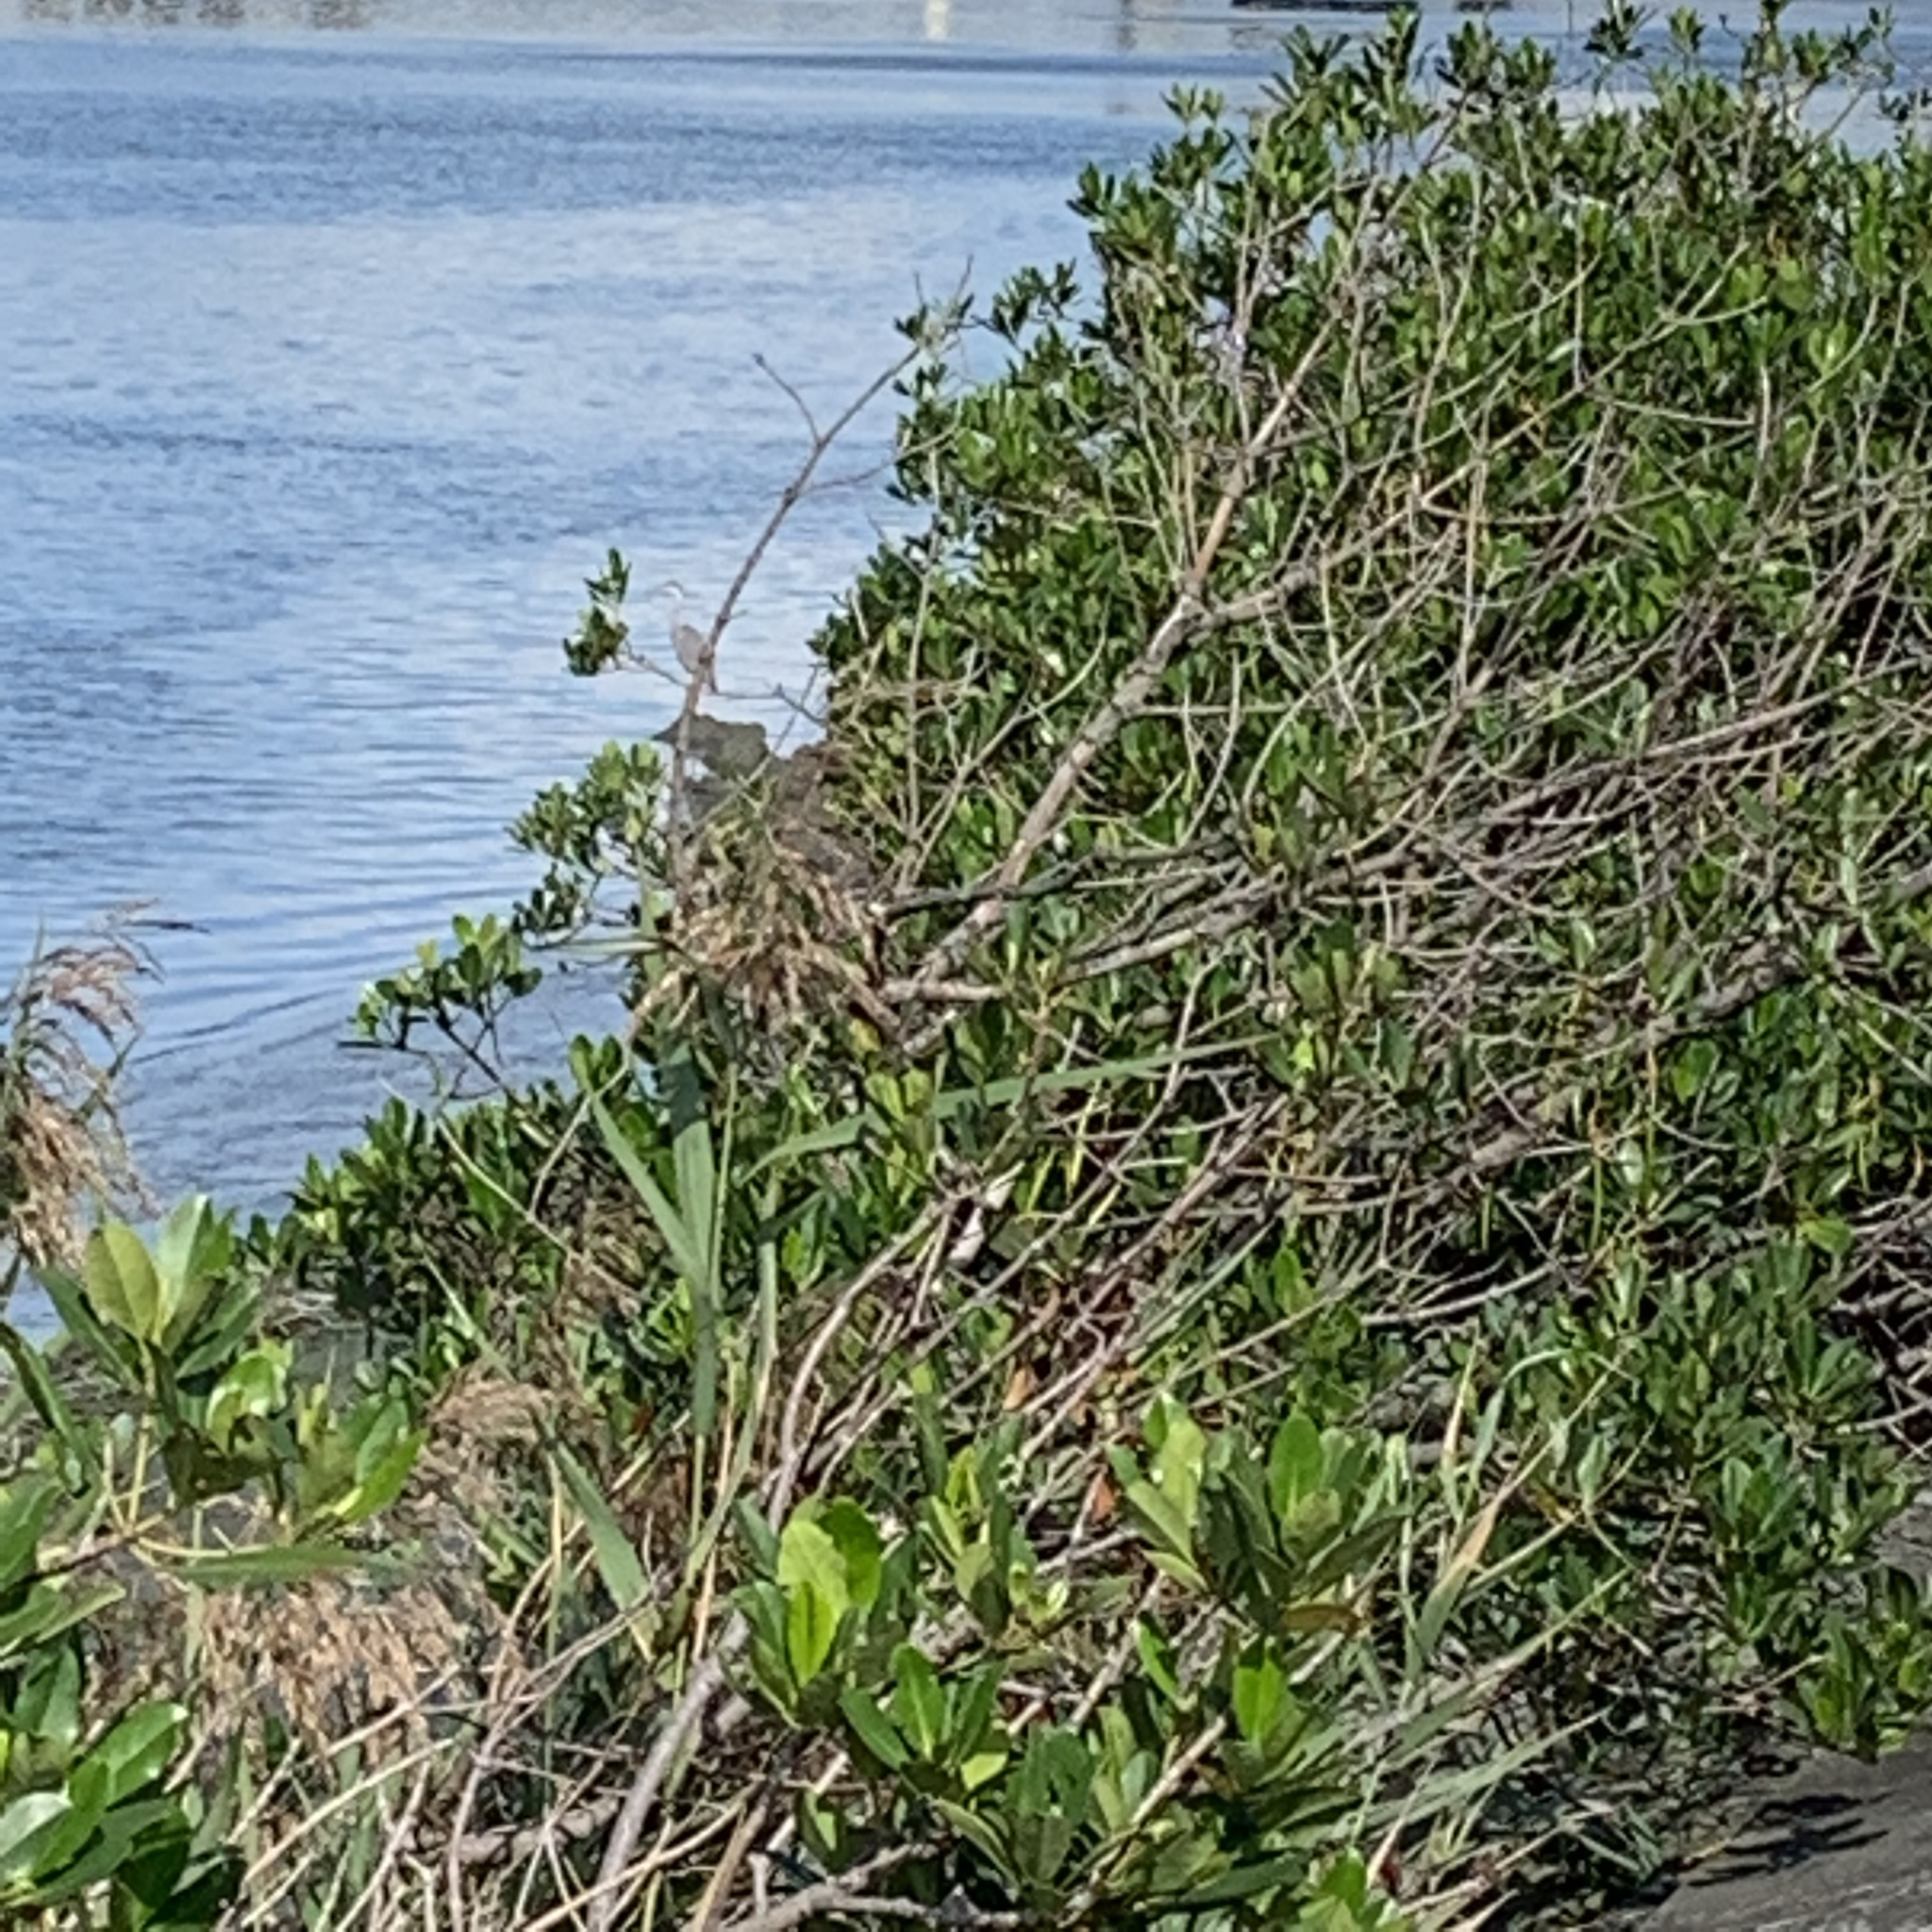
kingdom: Animalia
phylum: Chordata
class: Aves
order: Pelecaniformes
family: Ardeidae
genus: Ardea
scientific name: Ardea cinerea
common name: Grey heron
